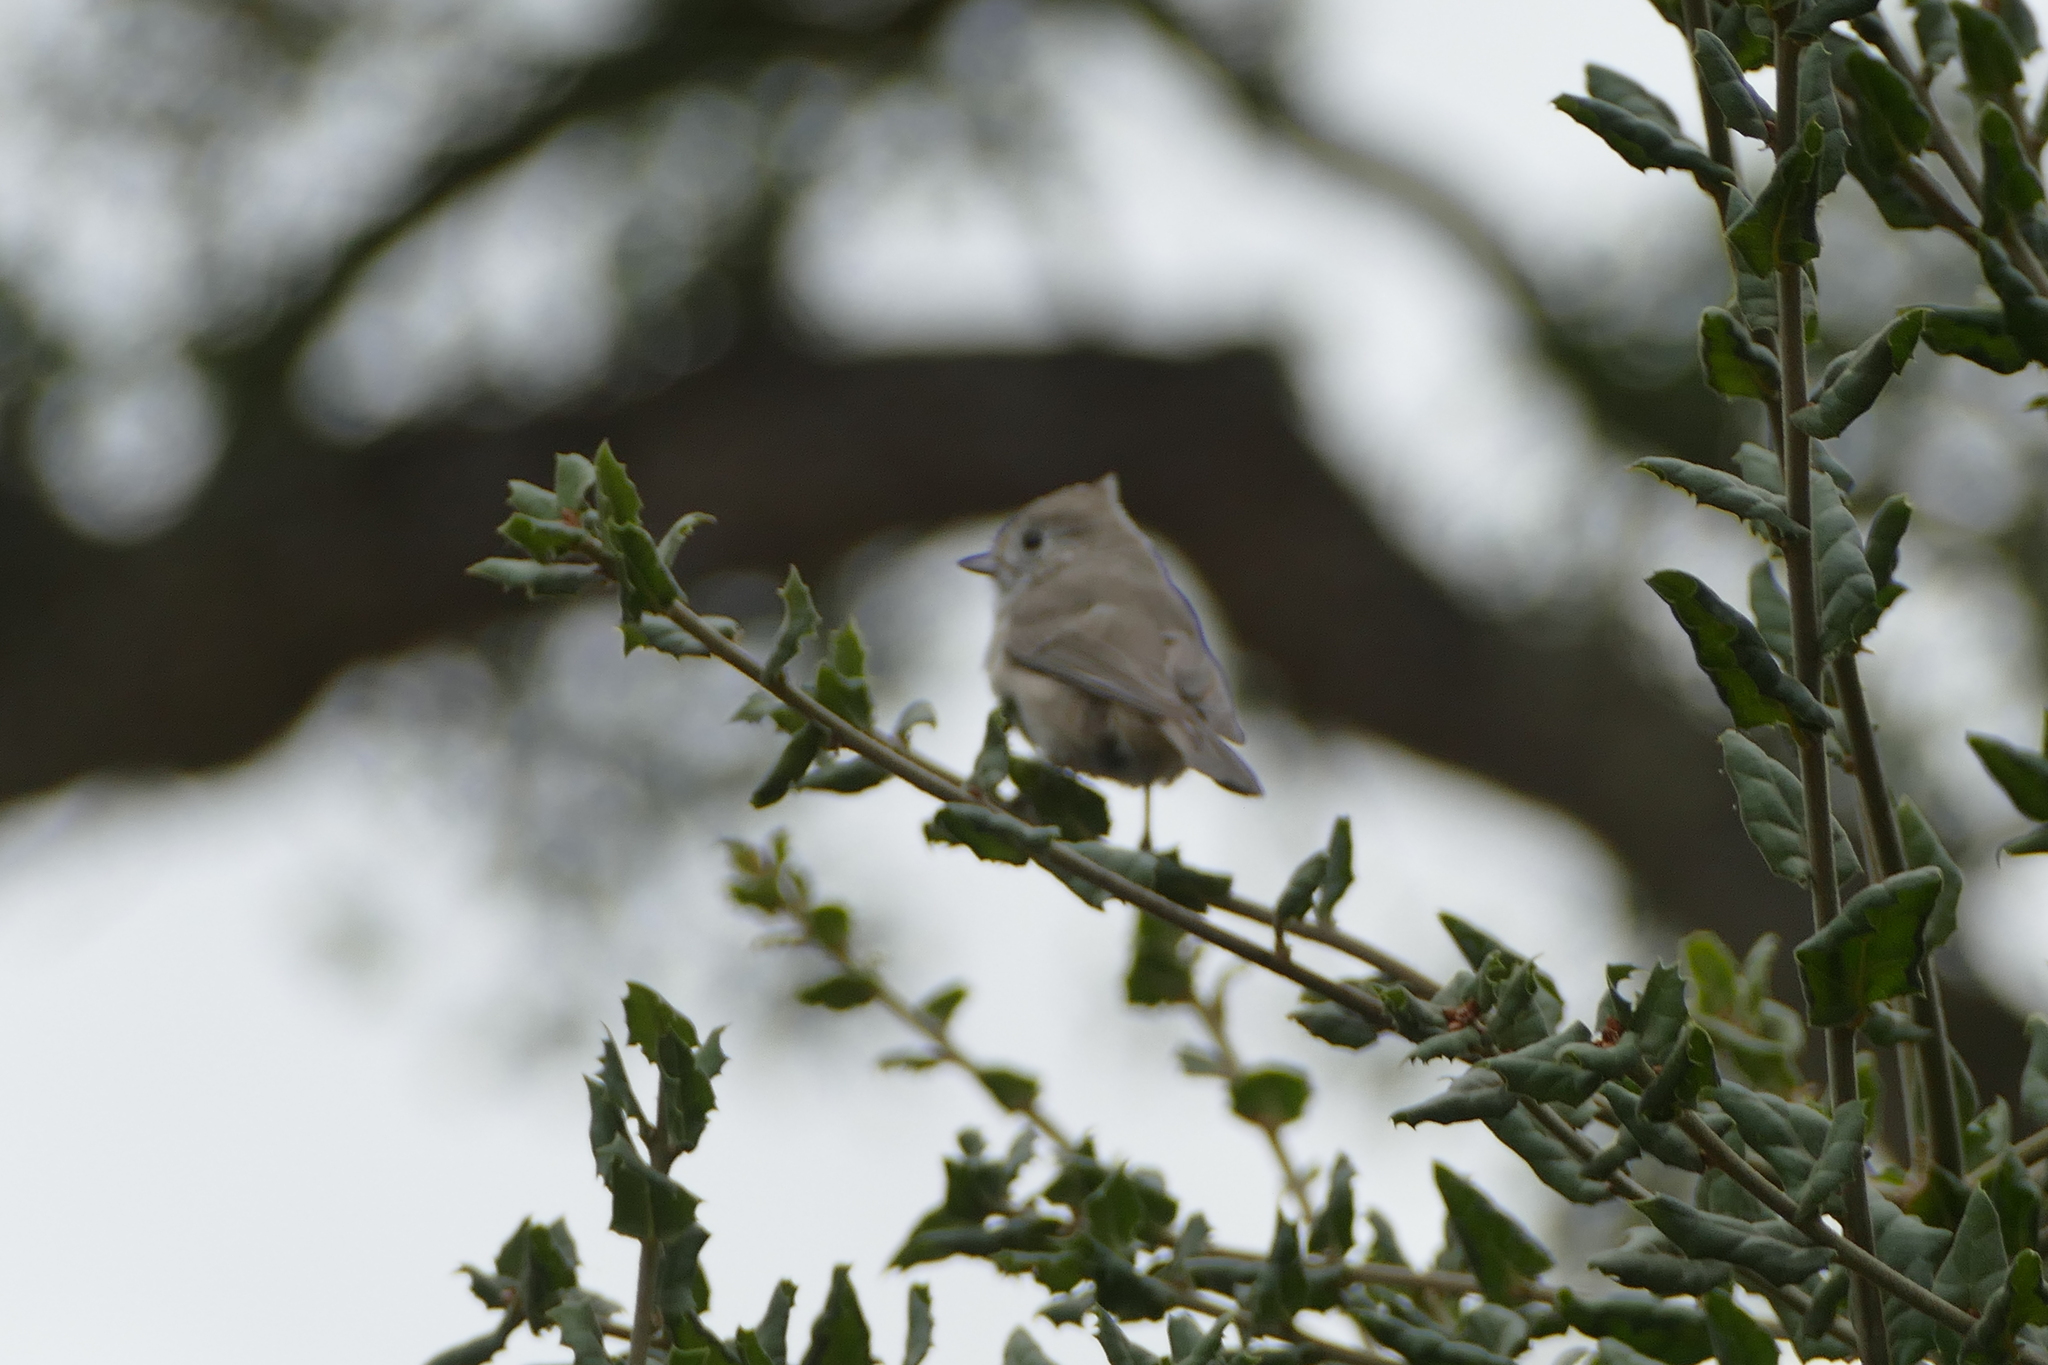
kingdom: Animalia
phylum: Chordata
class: Aves
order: Passeriformes
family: Paridae
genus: Baeolophus
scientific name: Baeolophus inornatus
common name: Oak titmouse
